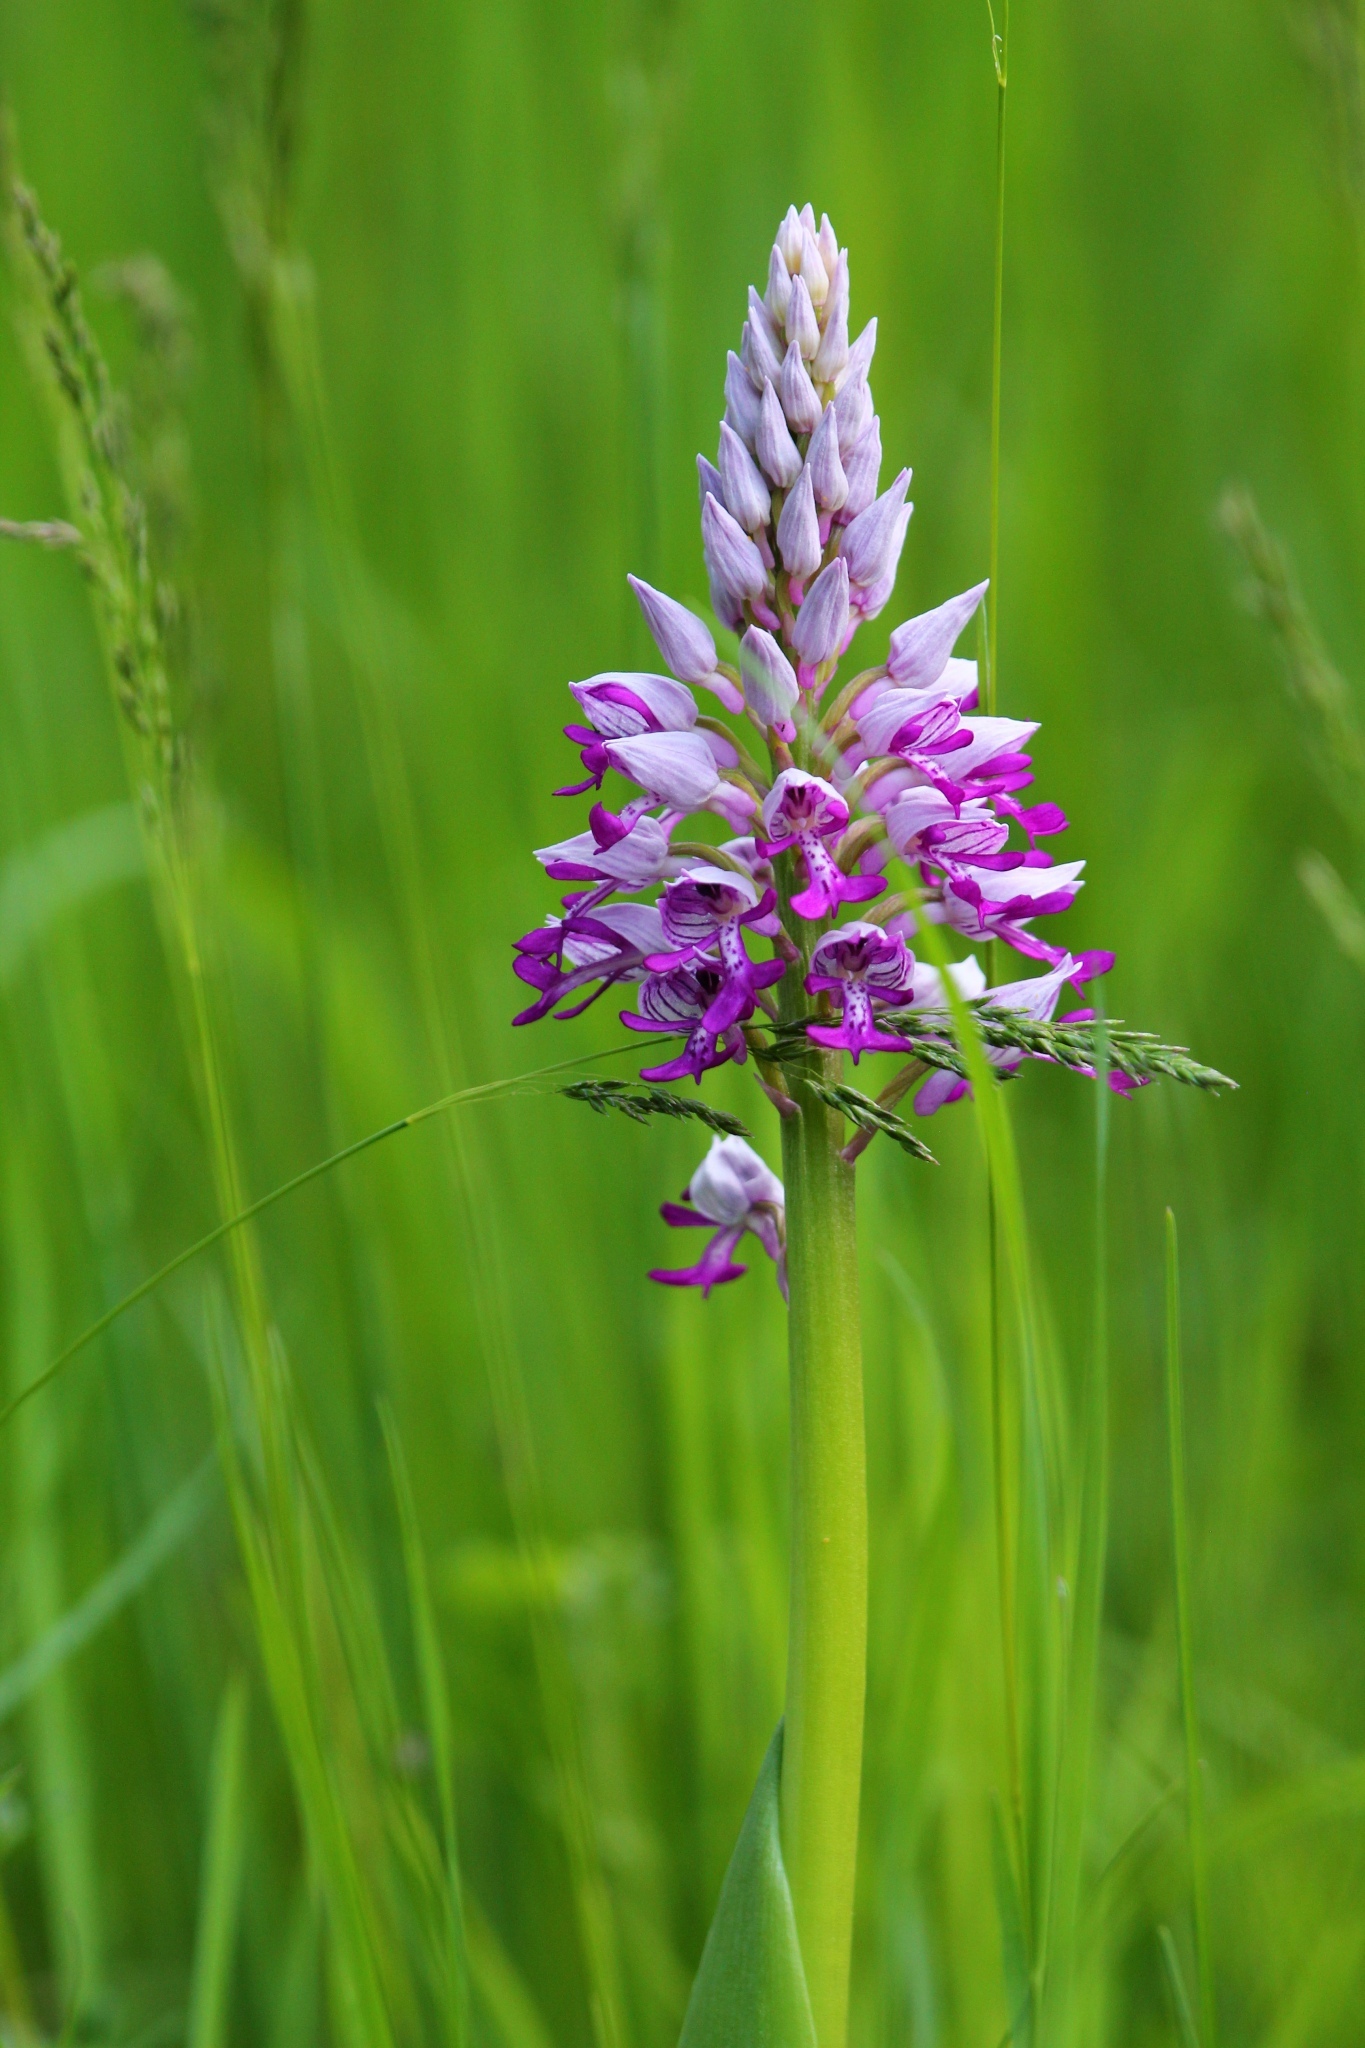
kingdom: Plantae
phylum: Tracheophyta
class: Liliopsida
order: Asparagales
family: Orchidaceae
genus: Orchis
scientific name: Orchis militaris
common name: Military orchid
